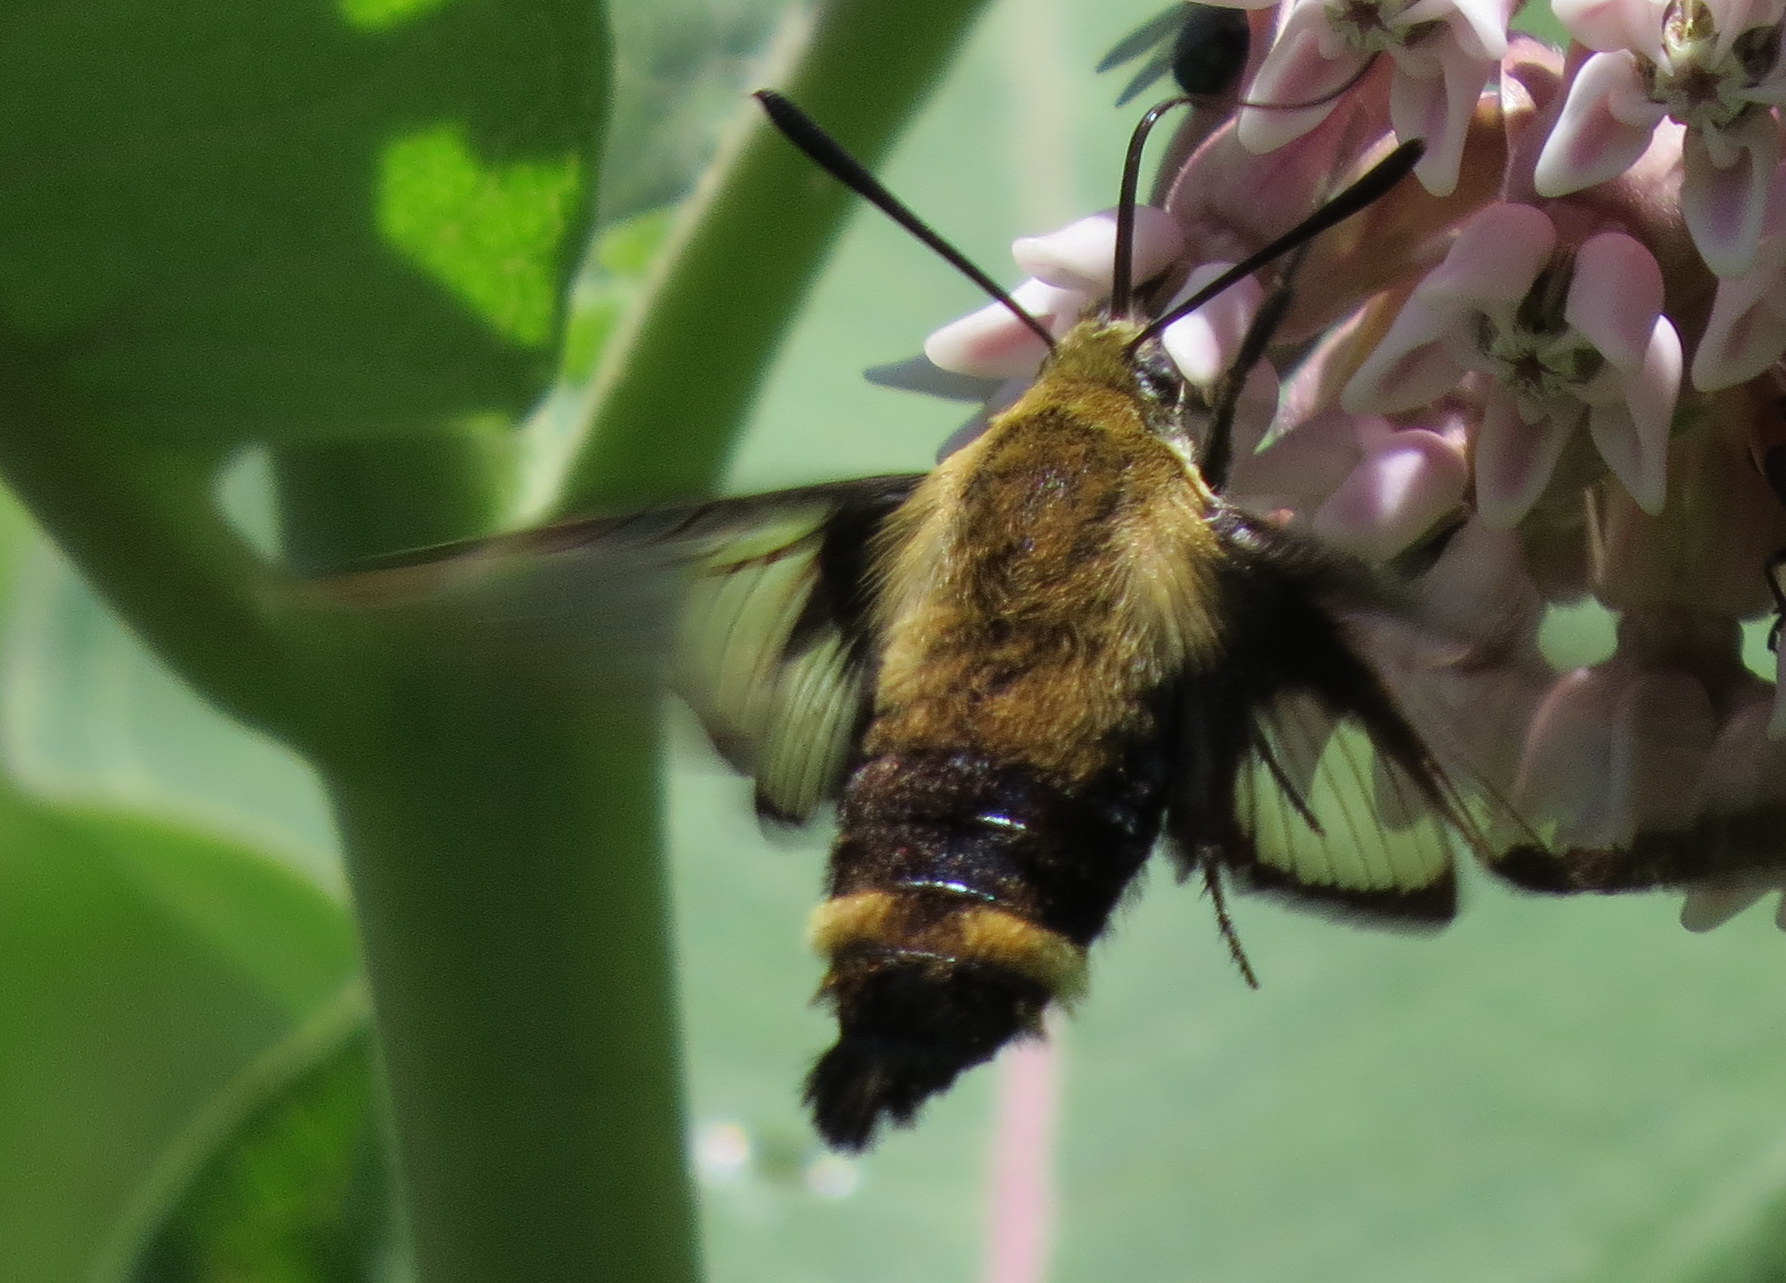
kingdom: Animalia
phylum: Arthropoda
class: Insecta
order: Lepidoptera
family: Sphingidae
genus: Hemaris
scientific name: Hemaris diffinis
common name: Bumblebee moth
